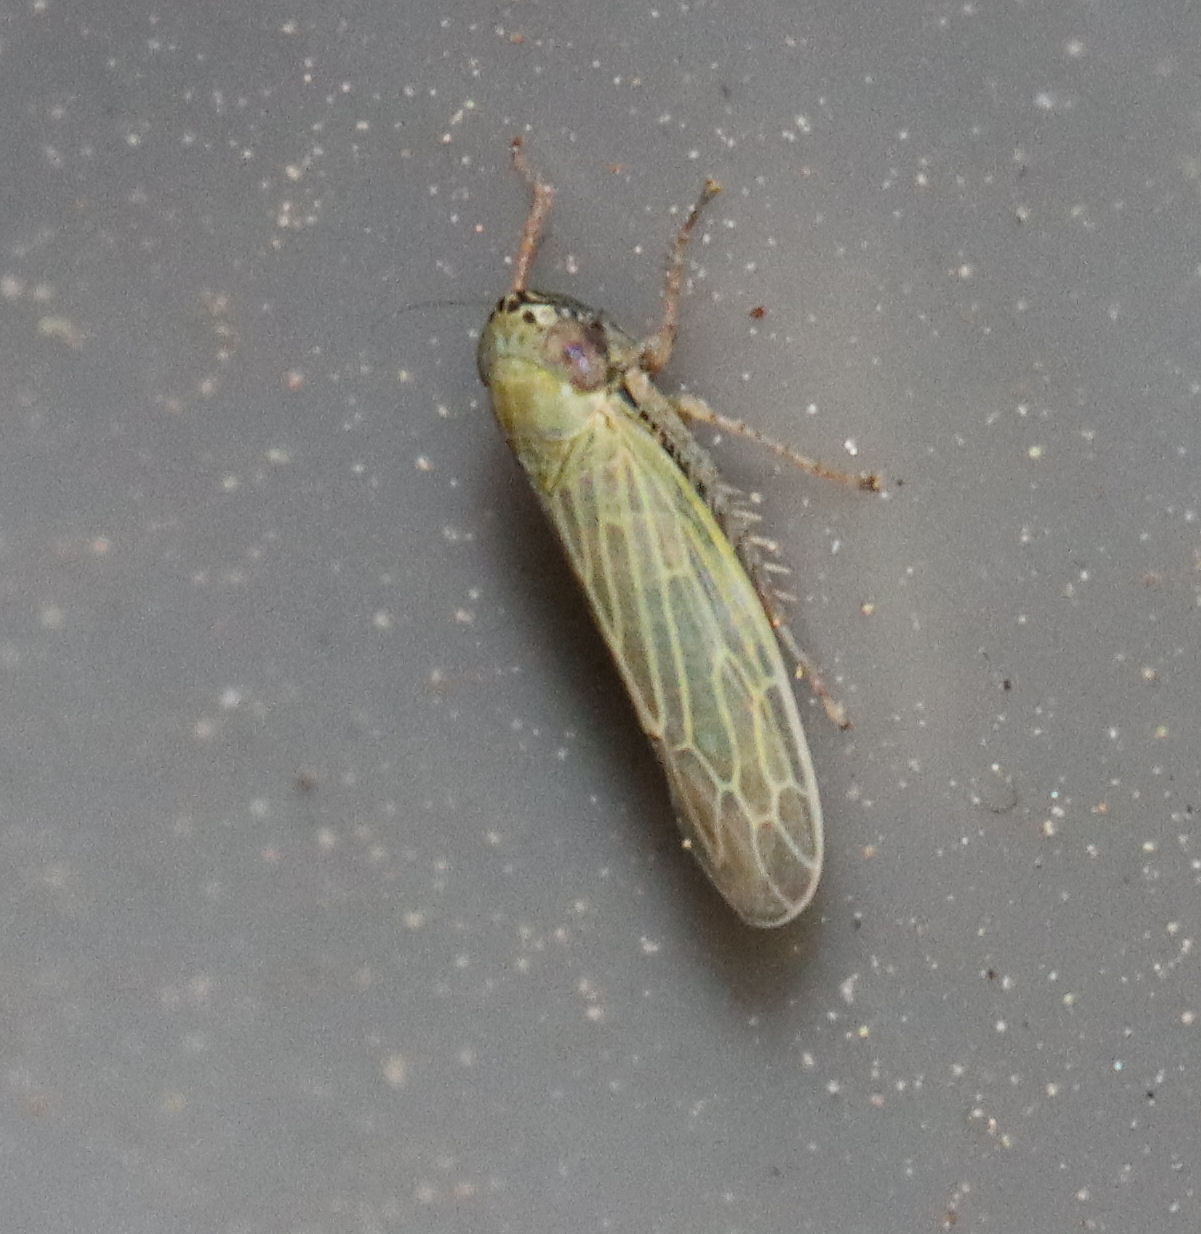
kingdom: Animalia
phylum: Arthropoda
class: Insecta
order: Hemiptera
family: Cicadellidae
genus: Graminella
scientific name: Graminella nigrifrons
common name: Blackfaced leafhopper
